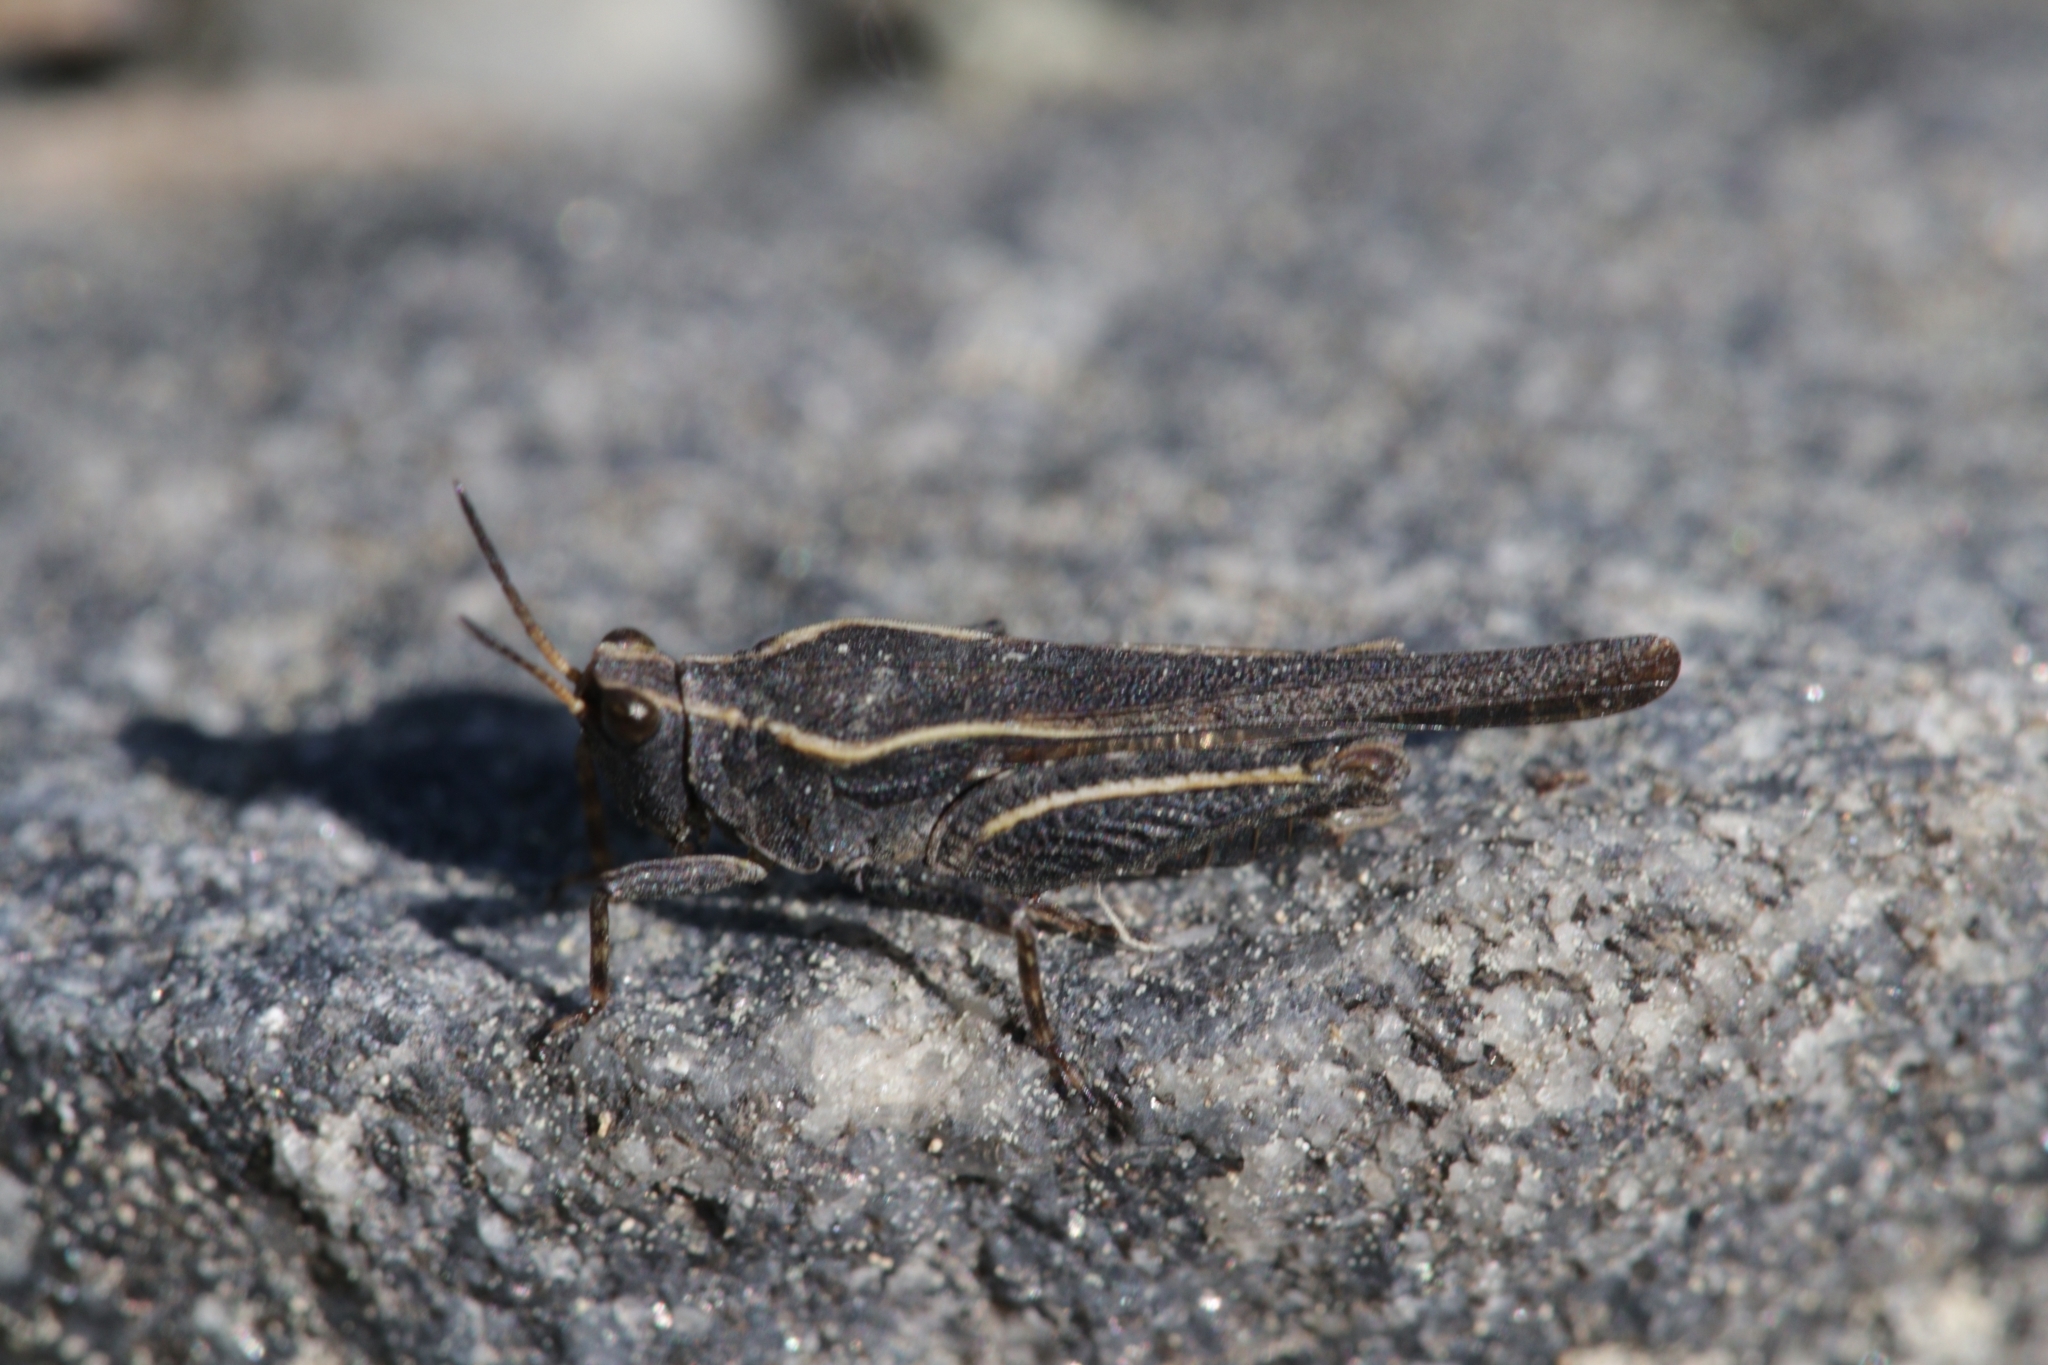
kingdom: Animalia
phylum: Arthropoda
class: Insecta
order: Orthoptera
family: Tetrigidae
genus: Tetrix
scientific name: Tetrix subulata
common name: Slender ground-hopper
